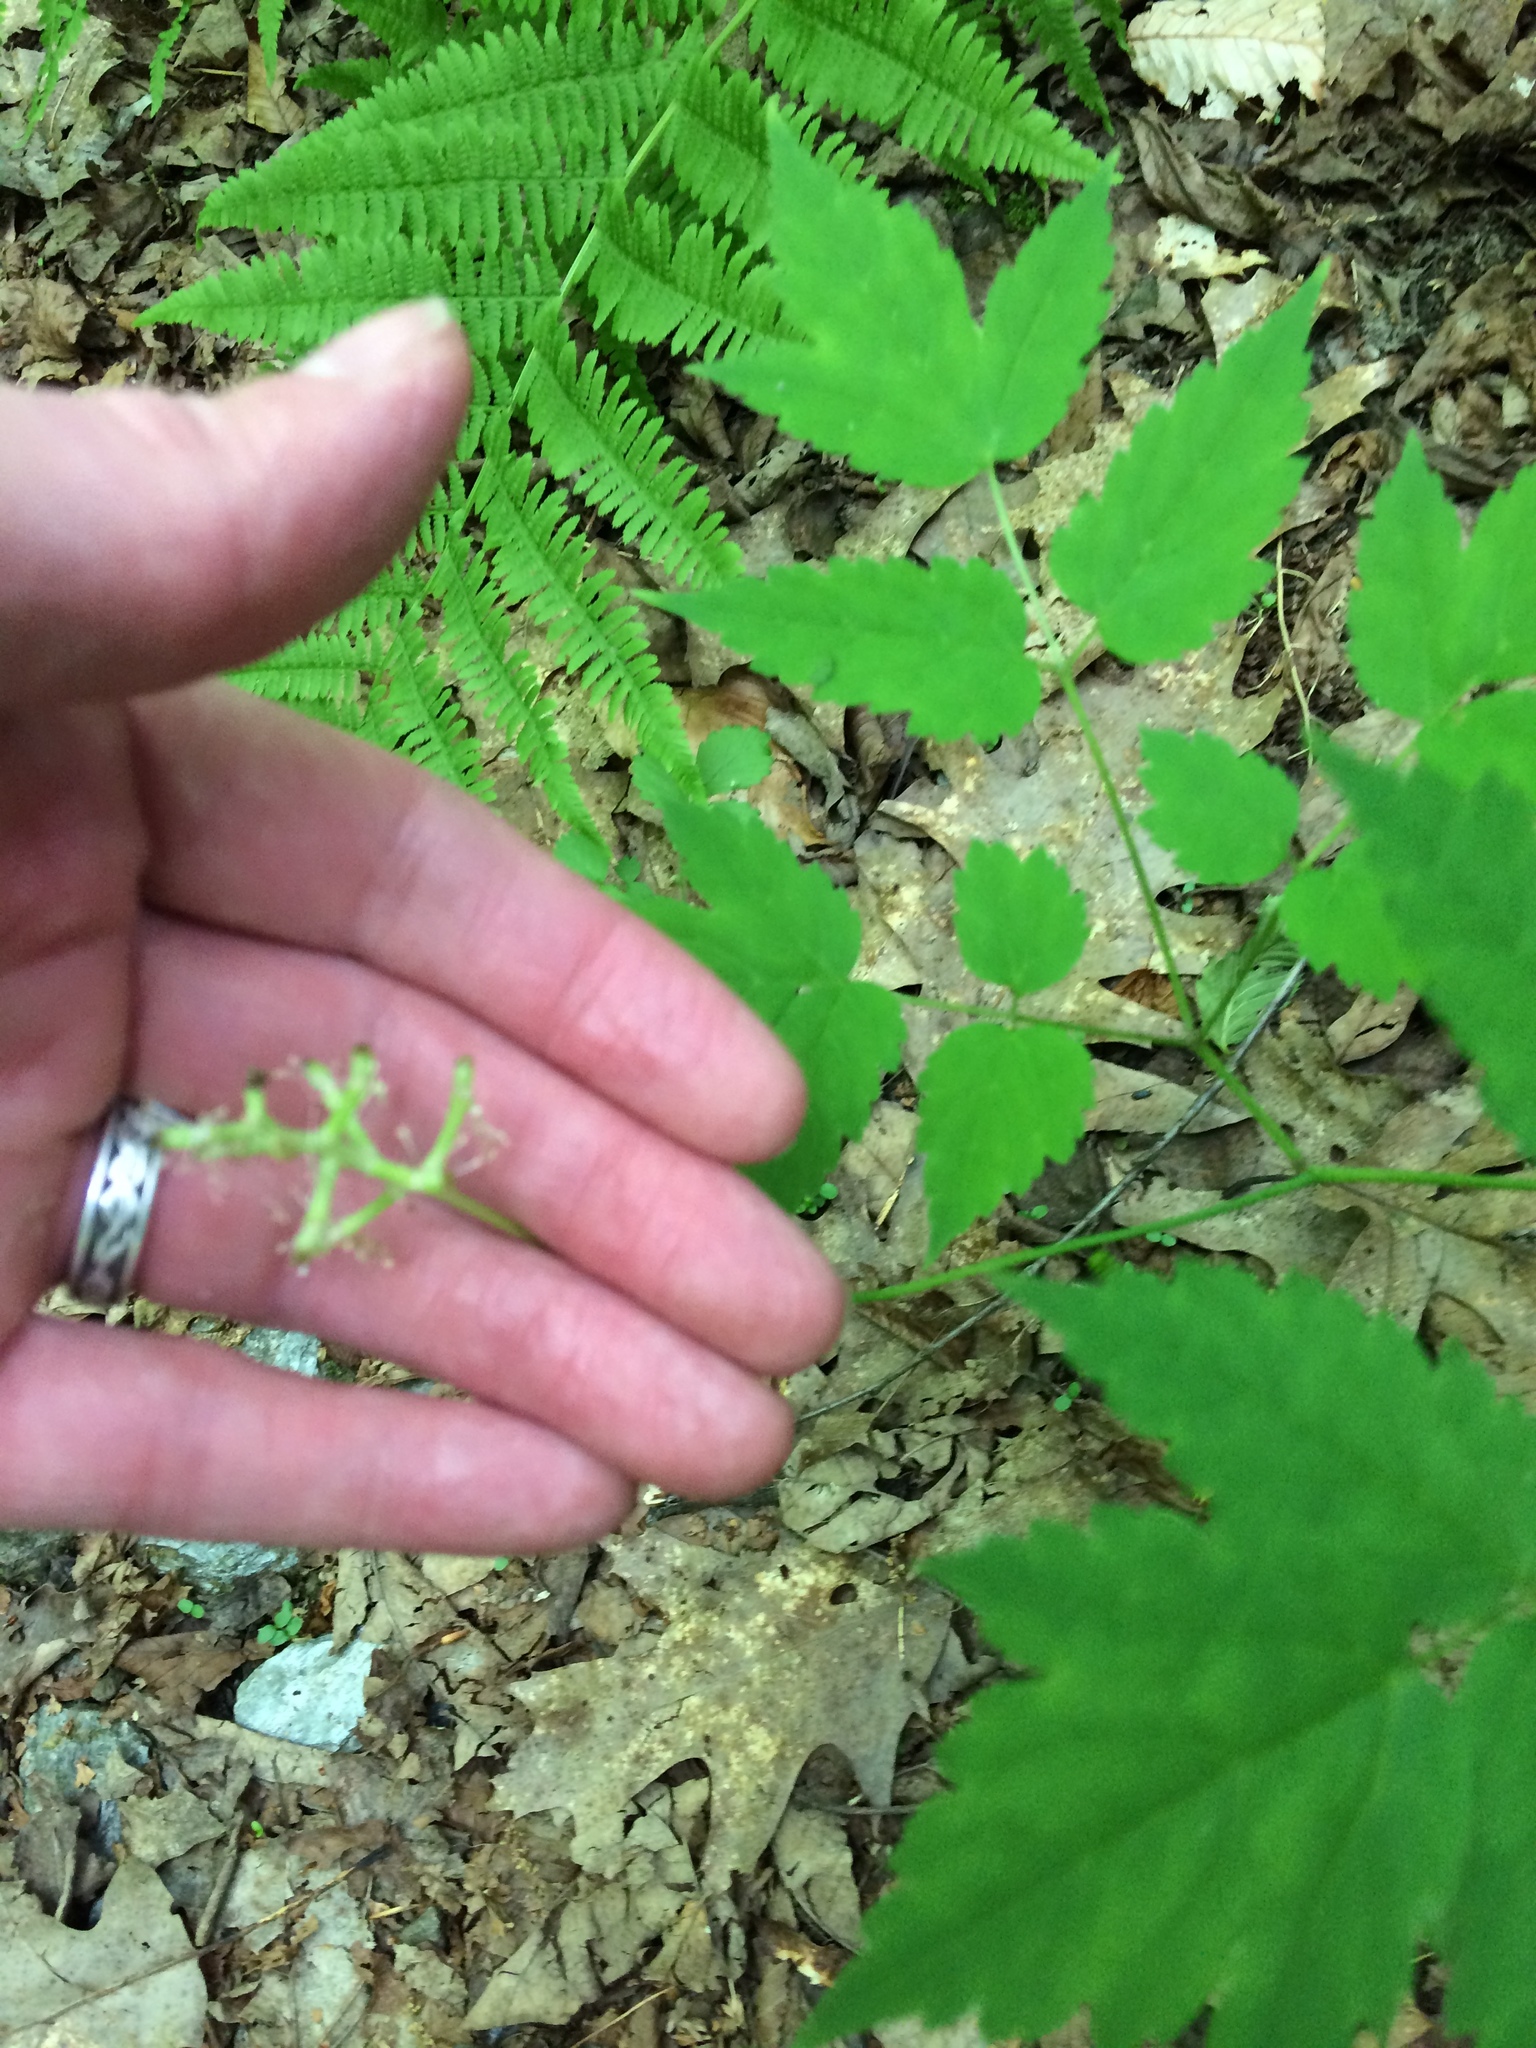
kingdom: Plantae
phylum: Tracheophyta
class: Magnoliopsida
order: Ranunculales
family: Ranunculaceae
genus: Actaea
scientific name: Actaea pachypoda
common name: Doll's-eyes
